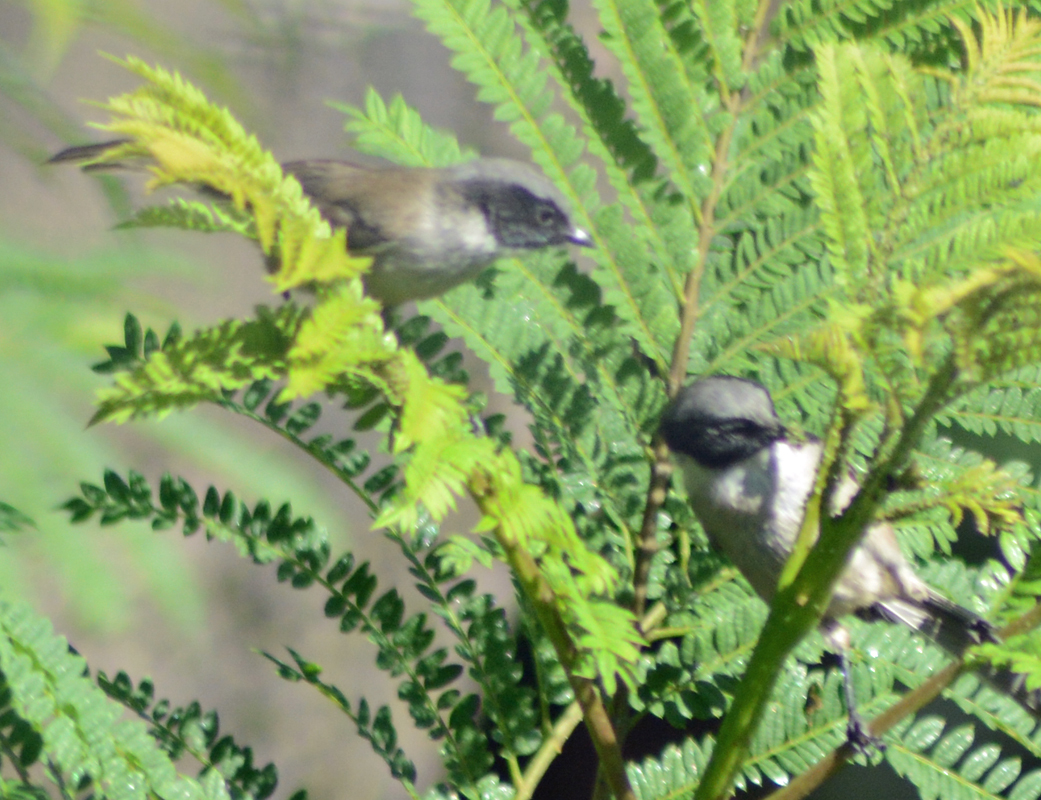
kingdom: Animalia
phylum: Chordata
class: Aves
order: Passeriformes
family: Aegithalidae
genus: Psaltriparus
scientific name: Psaltriparus minimus
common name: American bushtit
